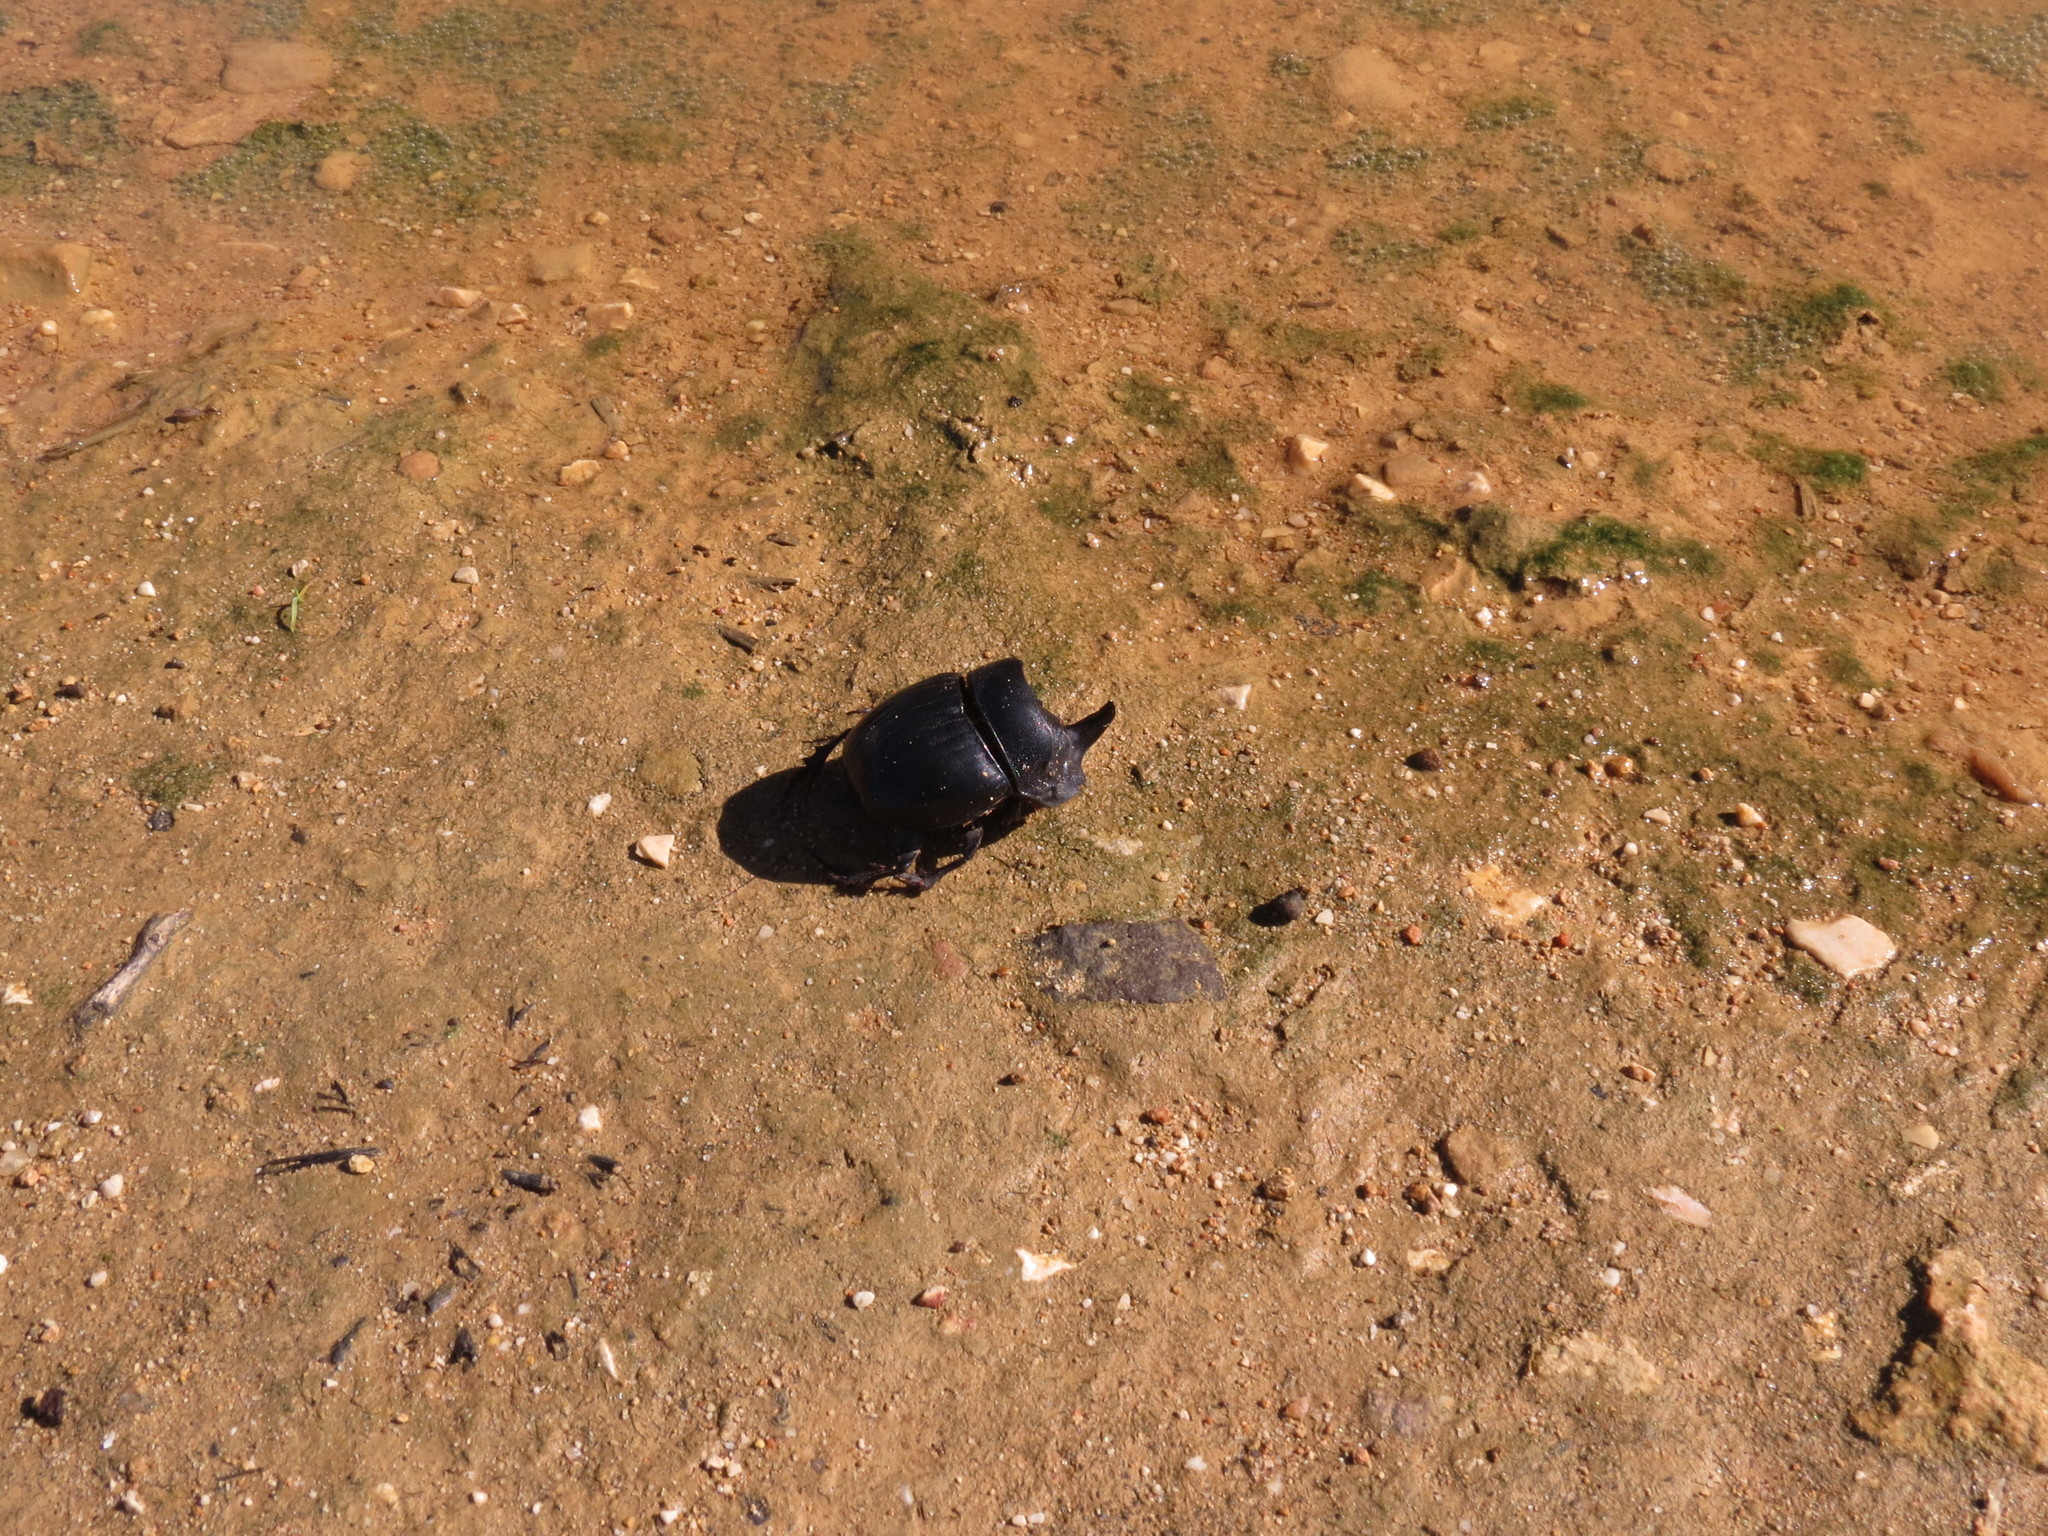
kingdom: Animalia
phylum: Arthropoda
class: Insecta
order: Coleoptera
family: Scarabaeidae
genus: Copris
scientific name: Copris hispanus
